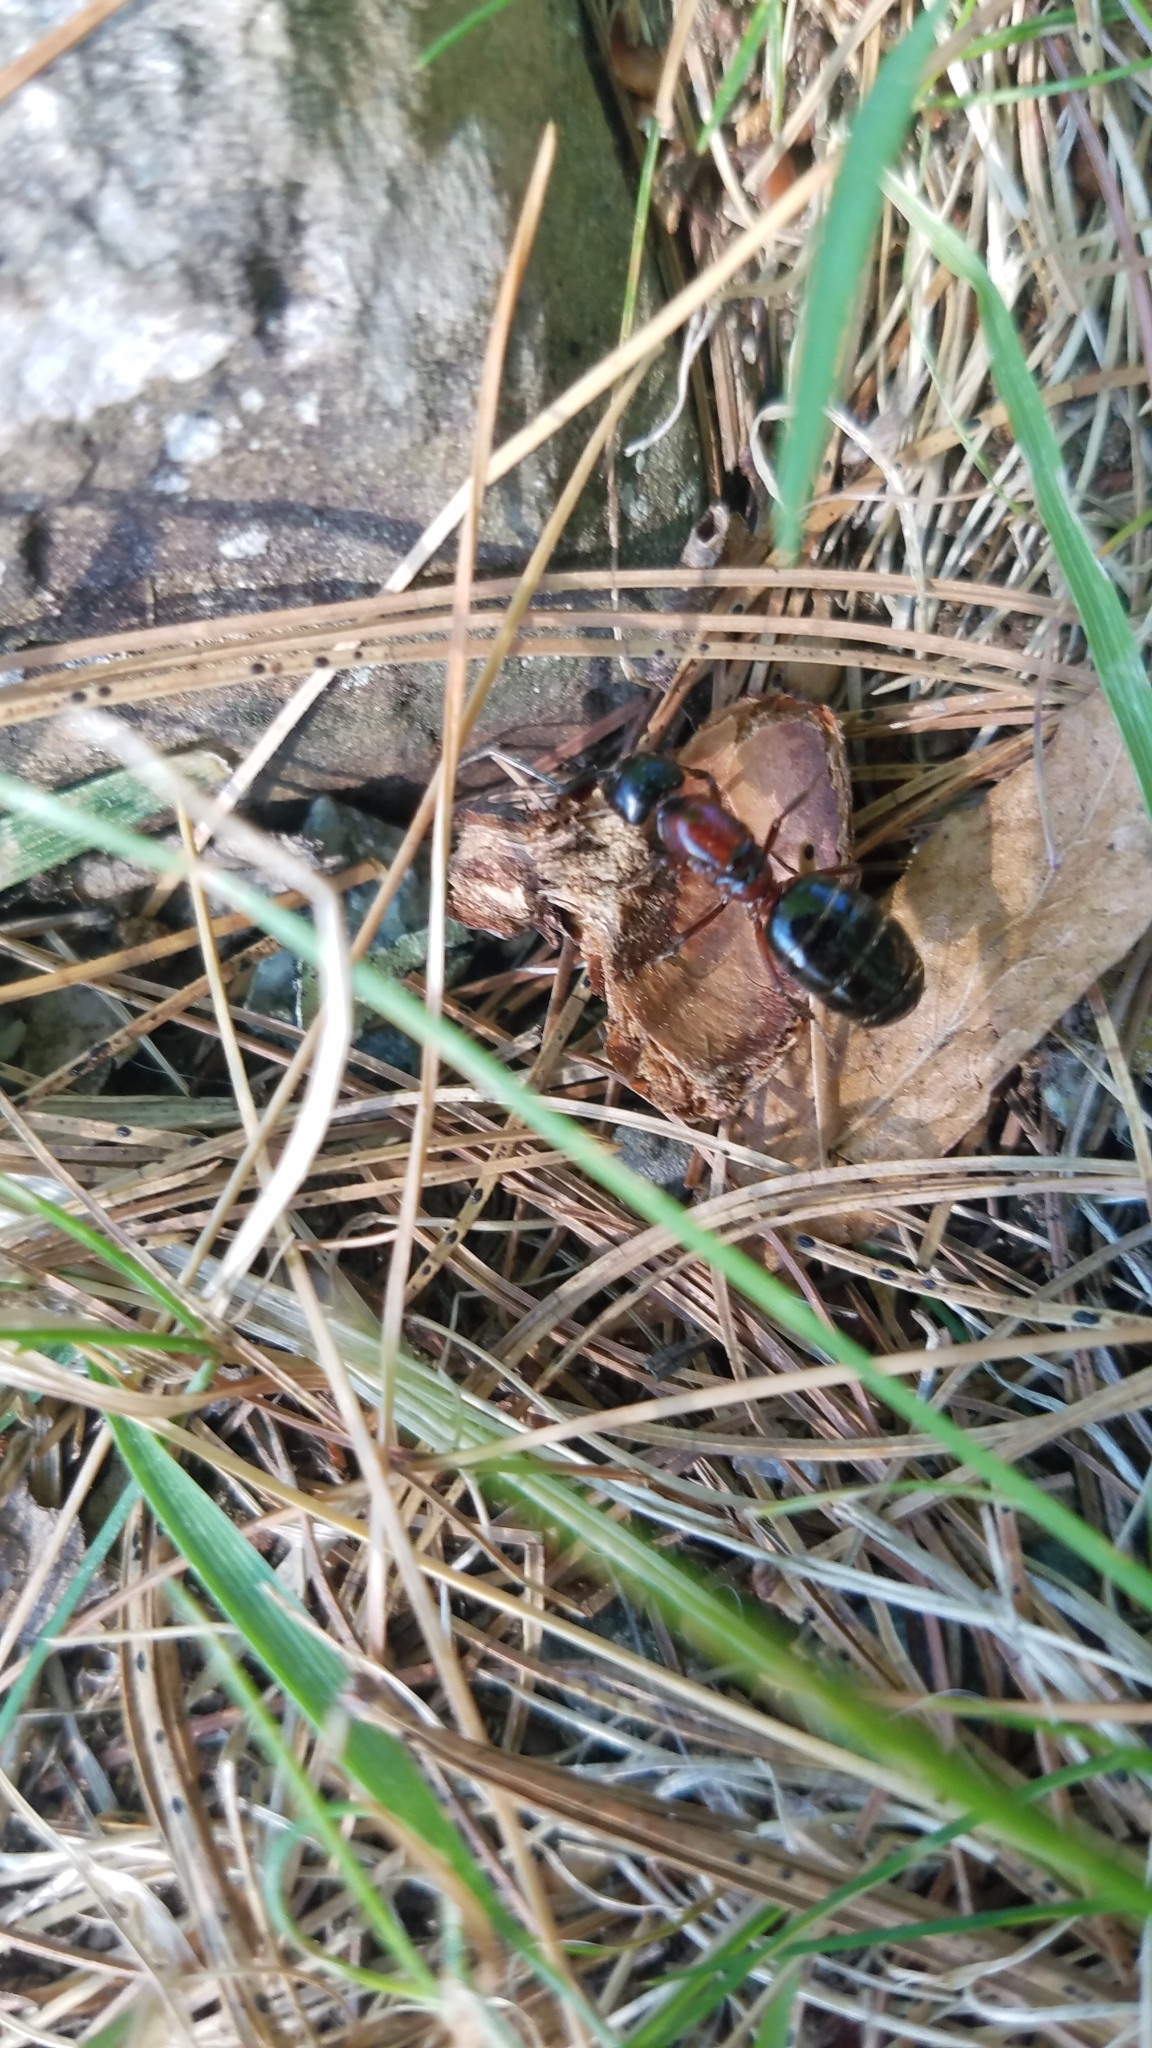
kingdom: Animalia
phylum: Arthropoda
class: Insecta
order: Hymenoptera
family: Formicidae
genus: Camponotus
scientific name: Camponotus novaeboracensis
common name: New york carpenter ant
